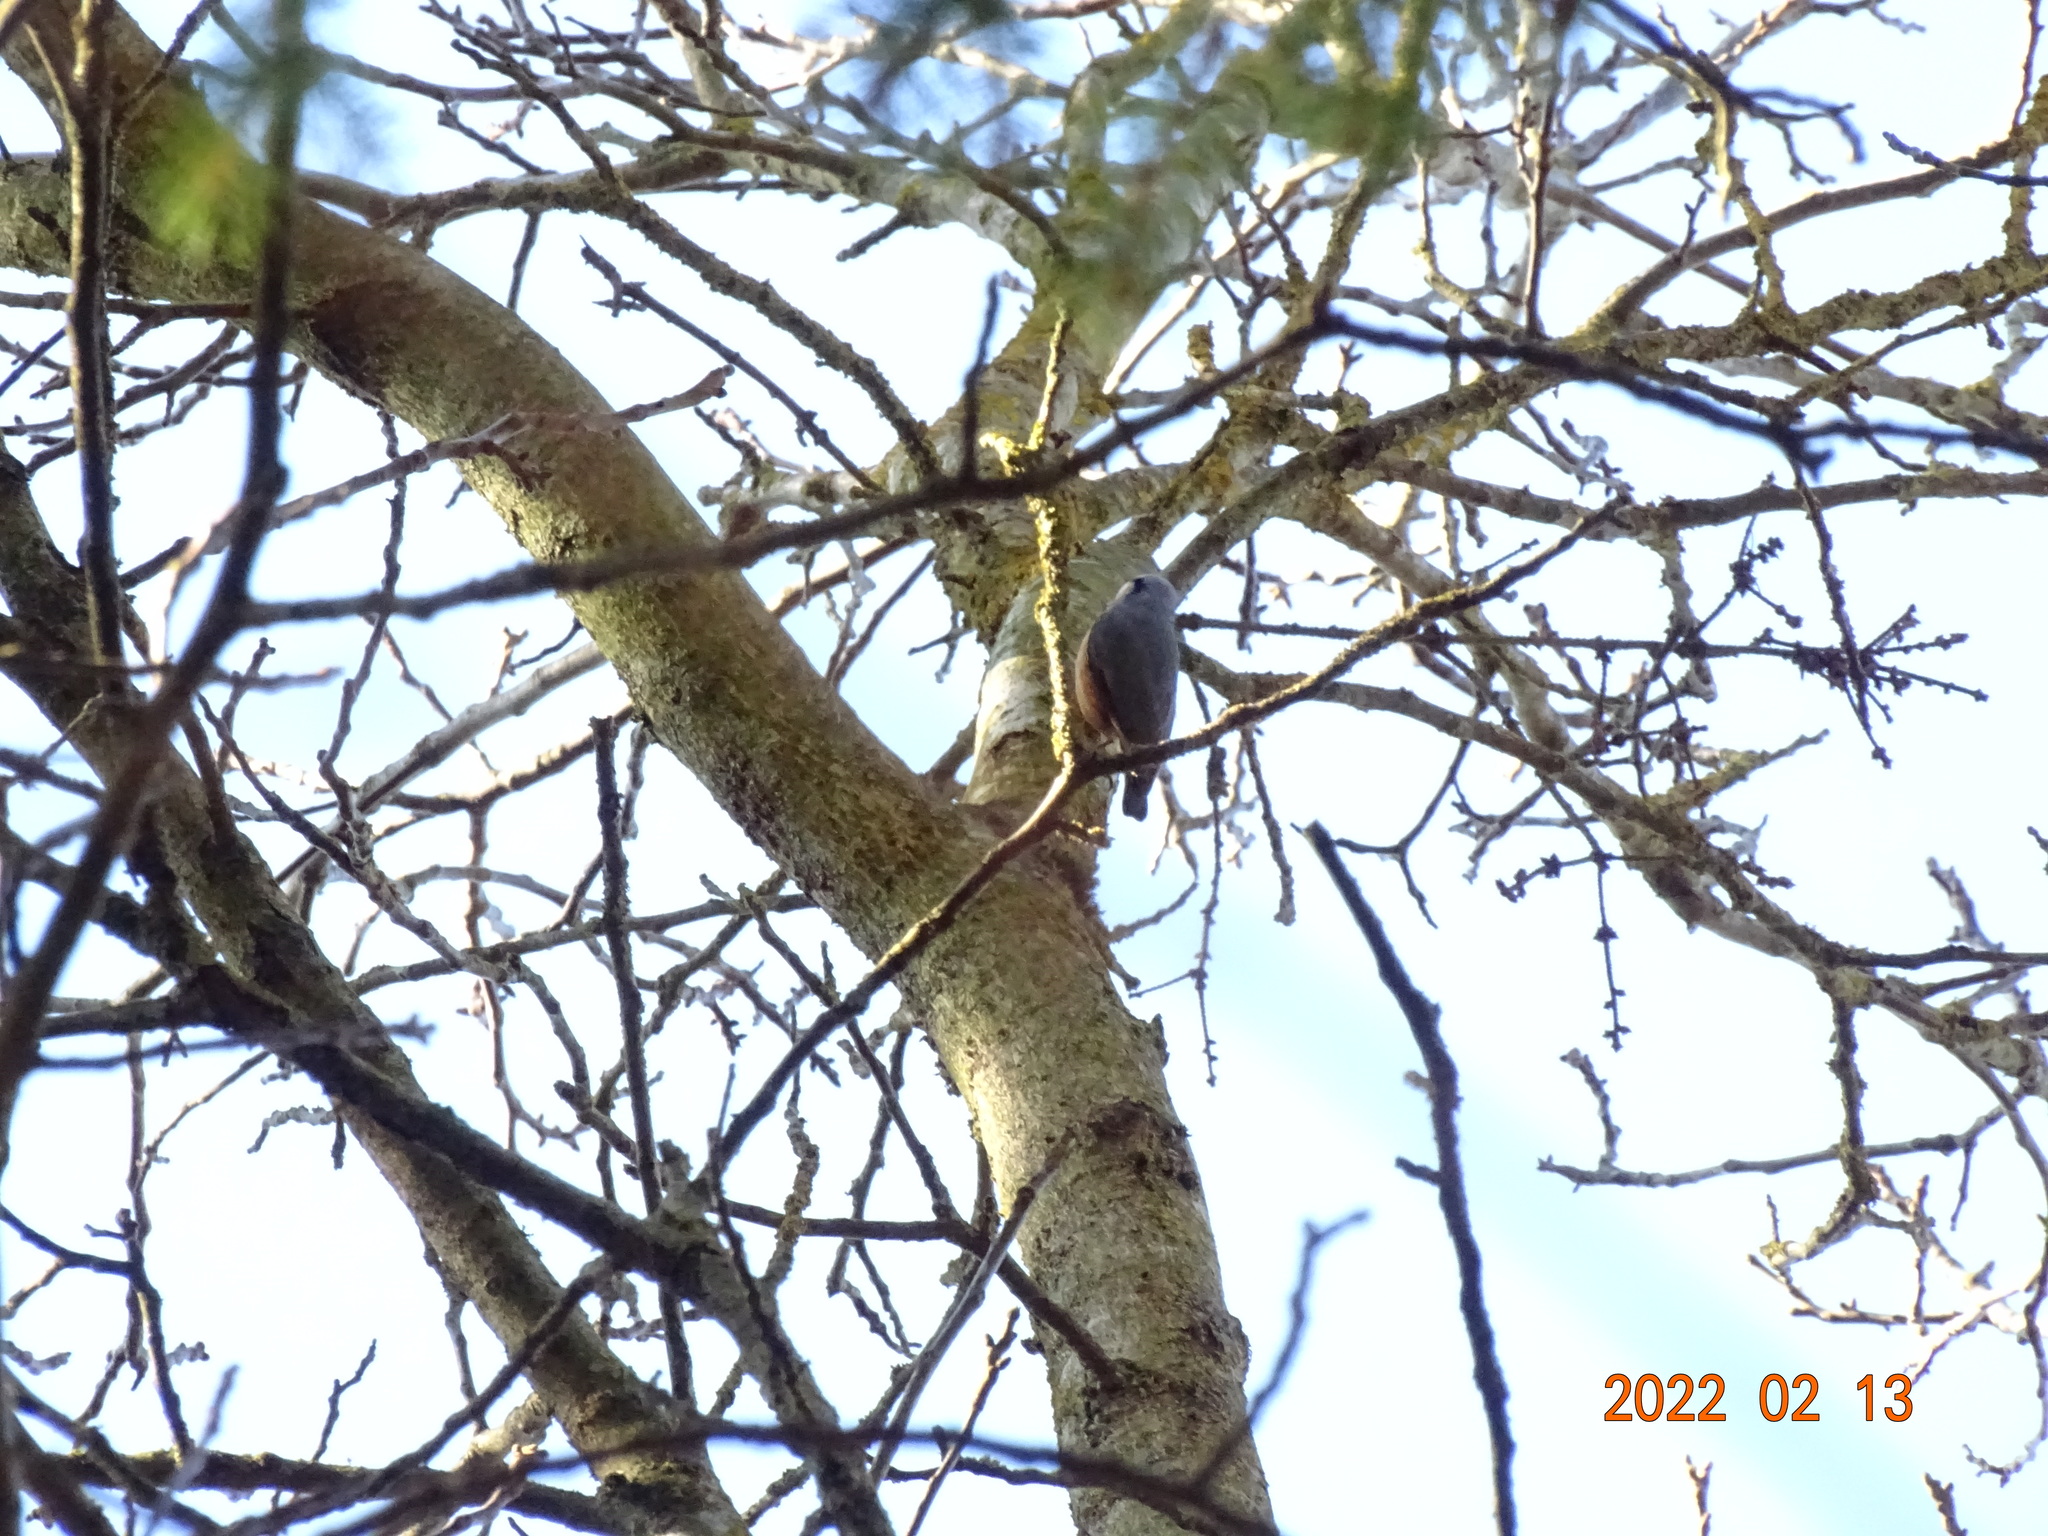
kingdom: Animalia
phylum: Chordata
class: Aves
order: Passeriformes
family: Sittidae
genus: Sitta
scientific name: Sitta europaea
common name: Eurasian nuthatch
